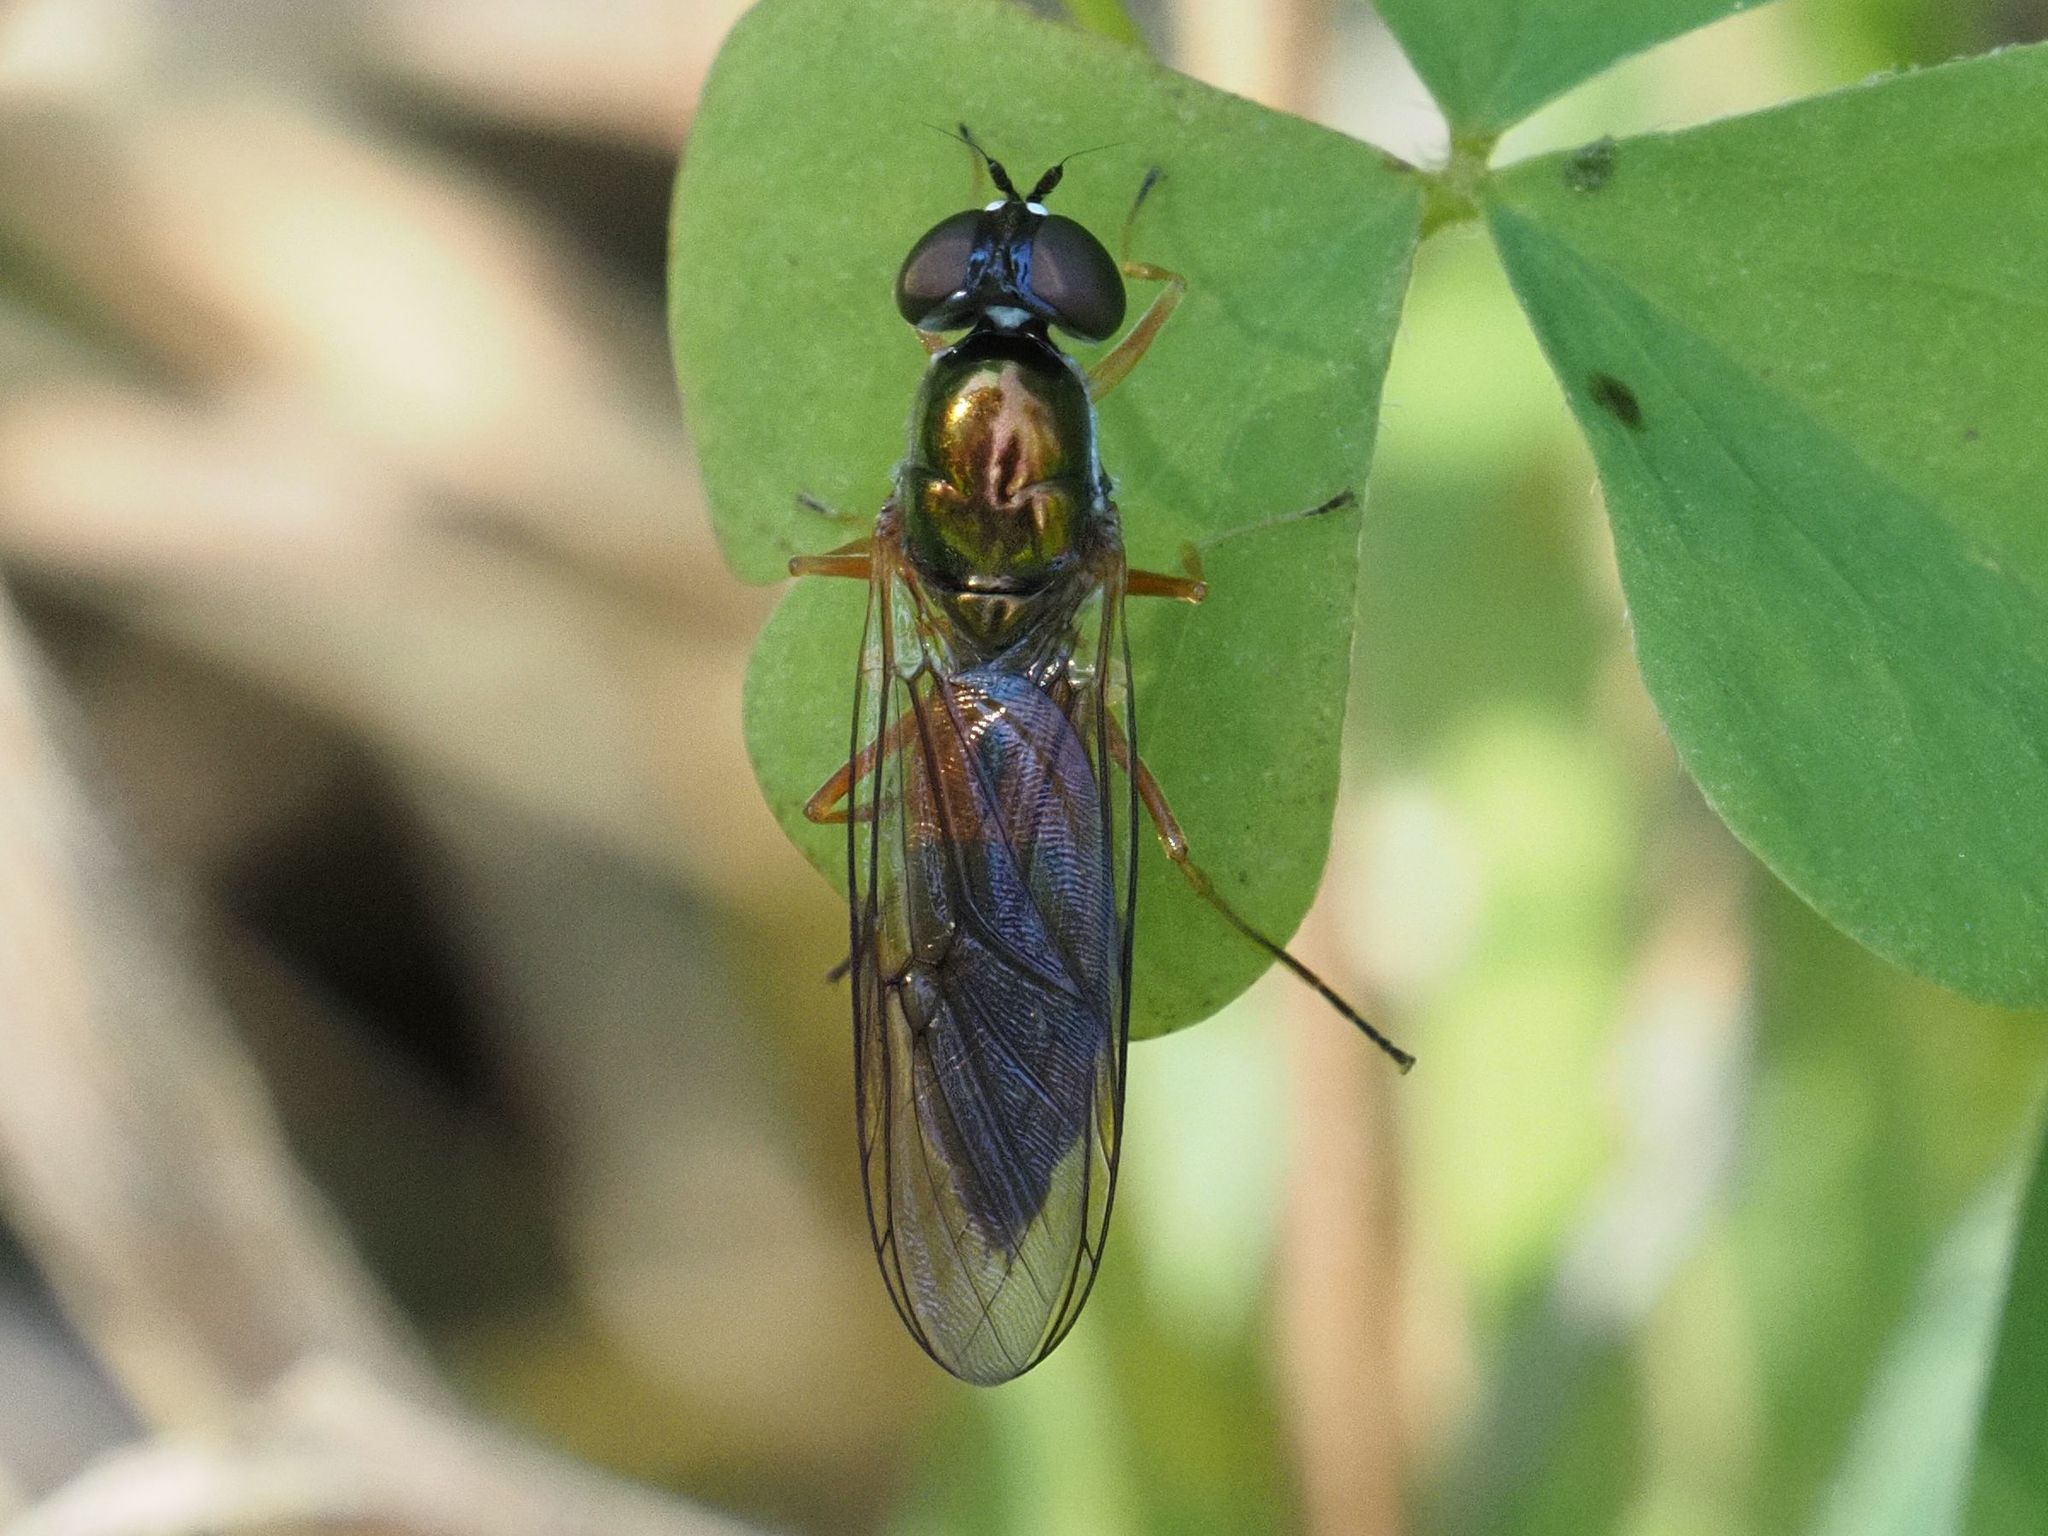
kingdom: Animalia
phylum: Arthropoda
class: Insecta
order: Diptera
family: Stratiomyidae
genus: Sargus
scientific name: Sargus bipunctatus
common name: Twin-spot centurion
